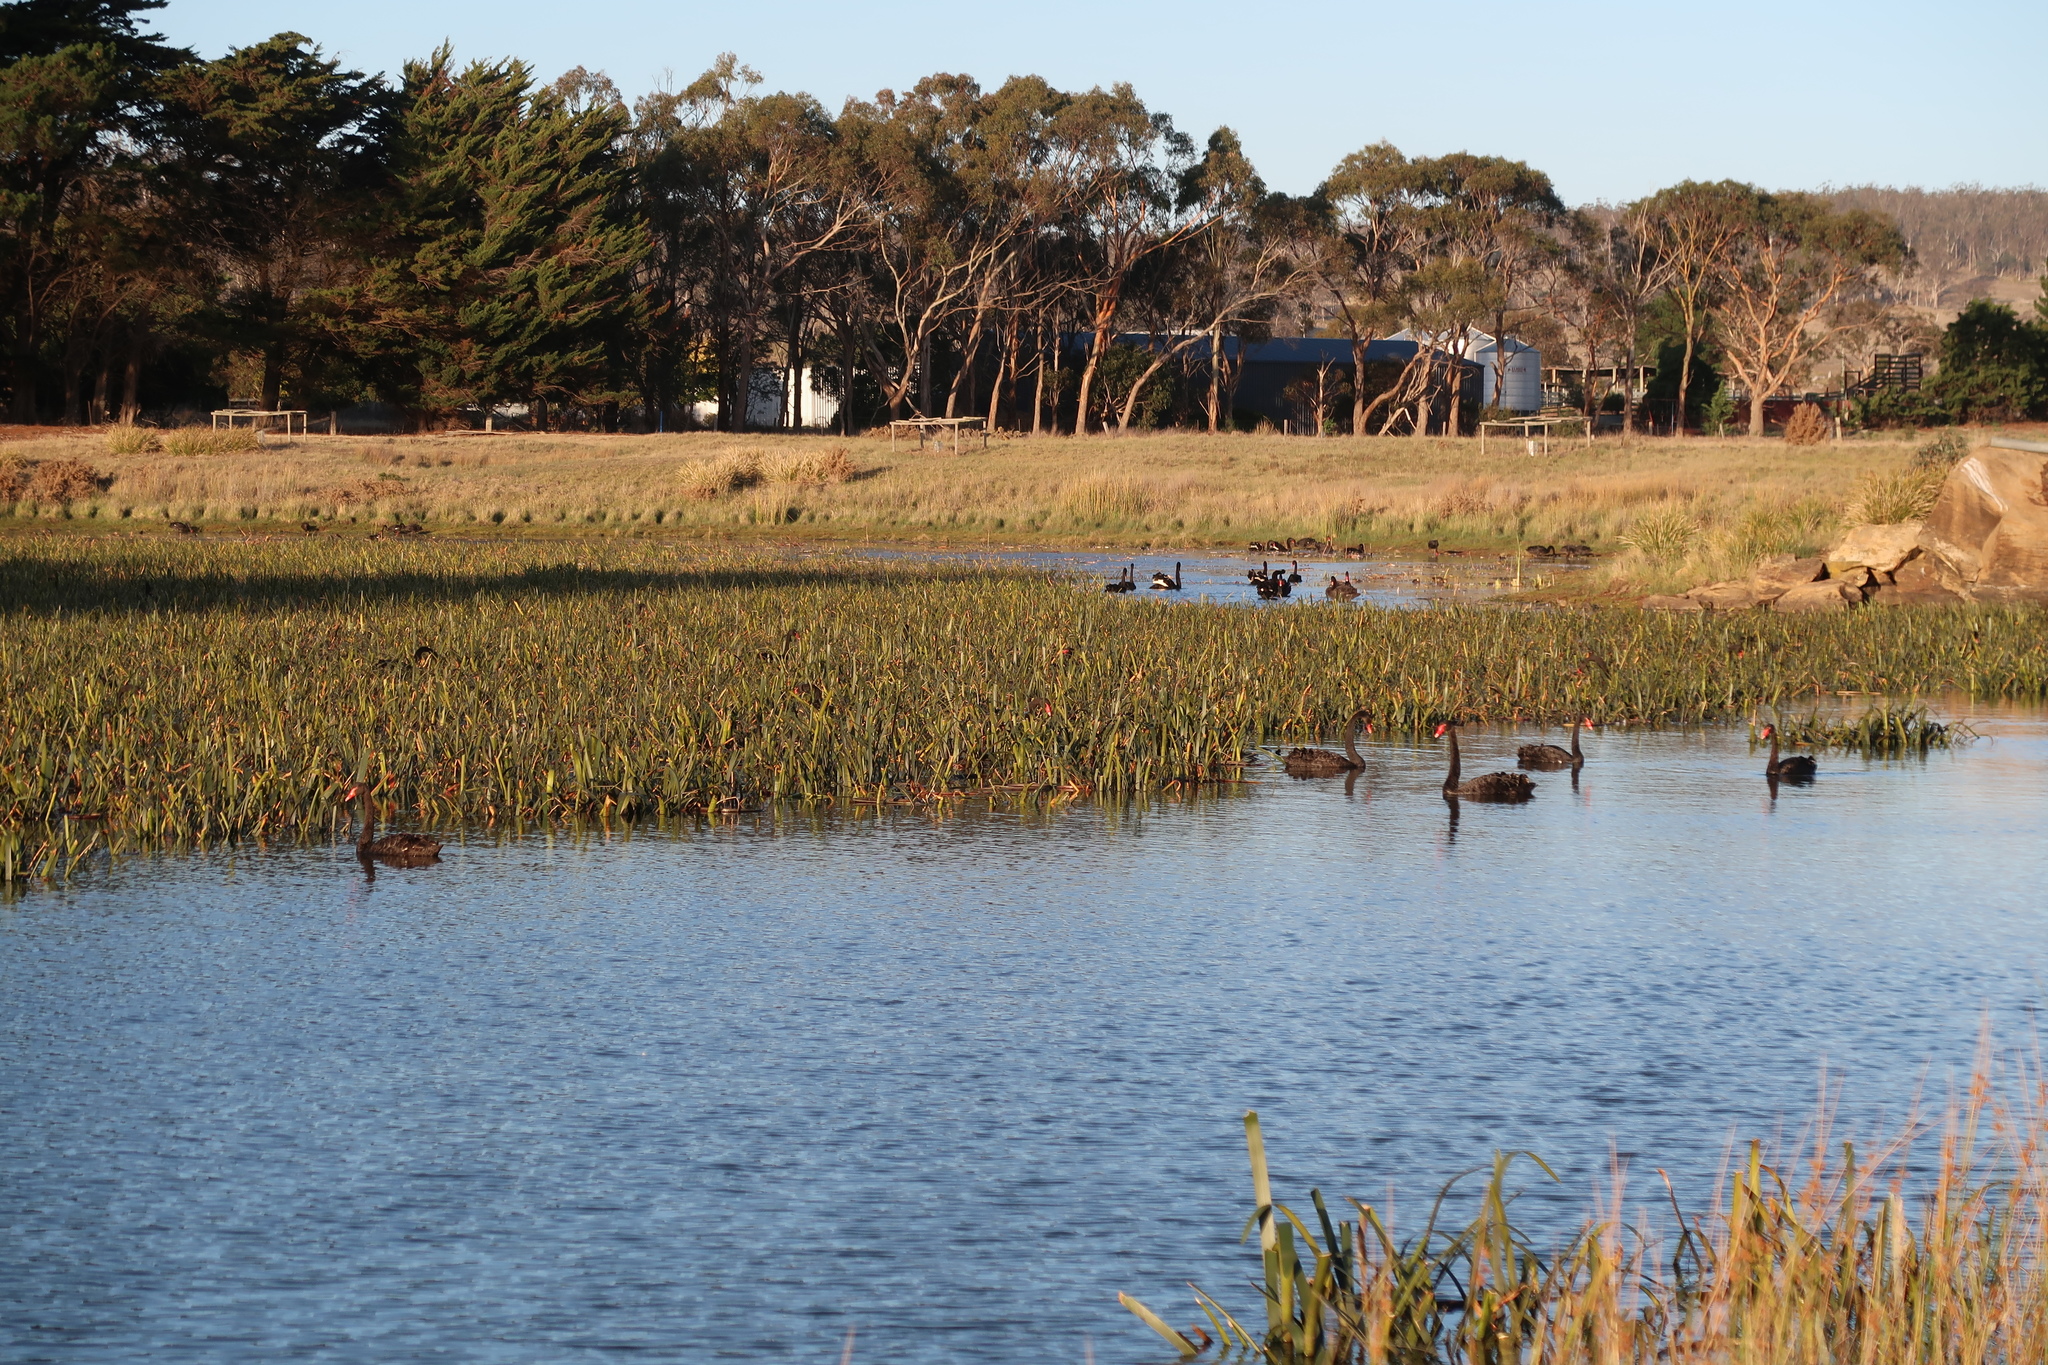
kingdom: Animalia
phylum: Chordata
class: Aves
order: Anseriformes
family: Anatidae
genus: Cygnus
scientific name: Cygnus atratus
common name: Black swan
